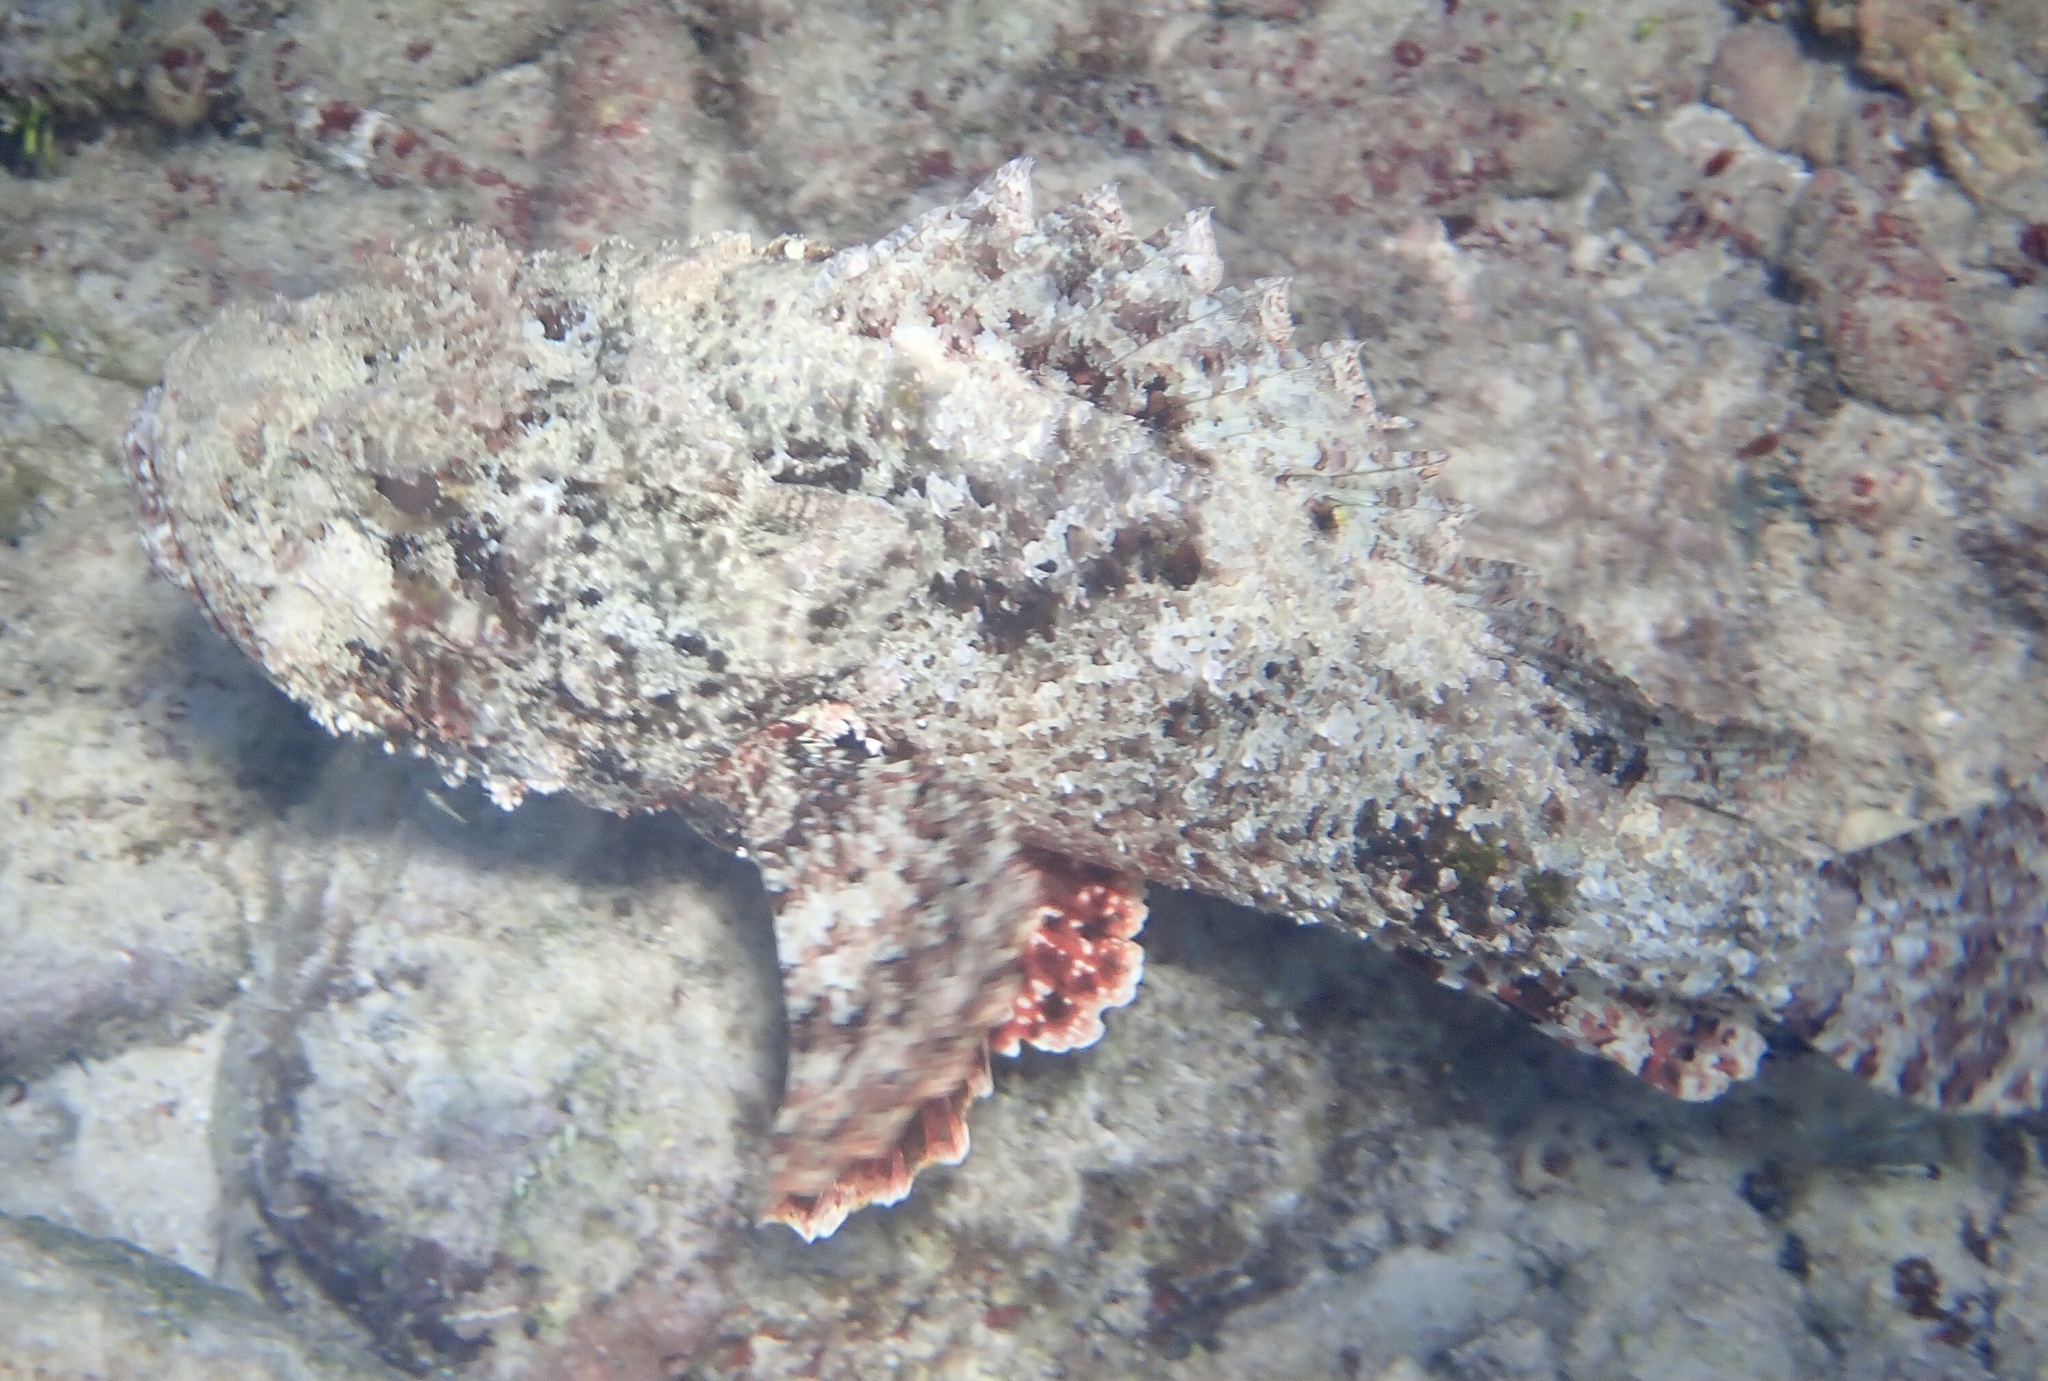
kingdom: Animalia
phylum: Chordata
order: Scorpaeniformes
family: Scorpaenidae
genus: Scorpaena
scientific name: Scorpaena plumieri
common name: Spotted scorpionfish
